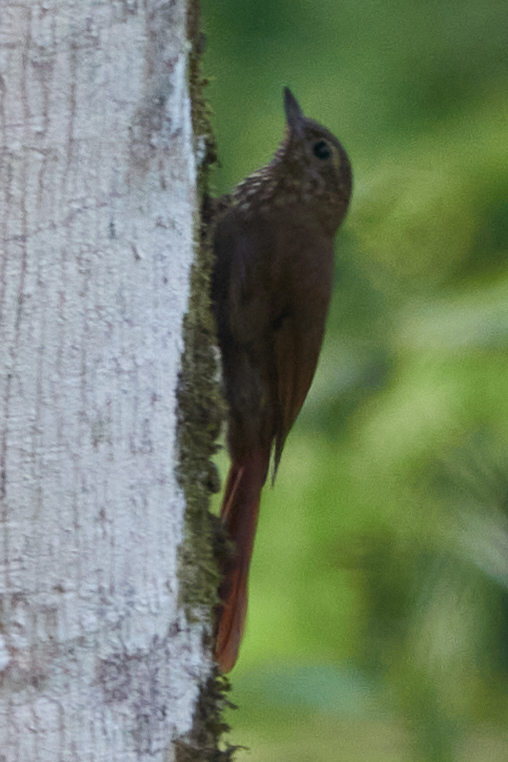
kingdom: Animalia
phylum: Chordata
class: Aves
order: Passeriformes
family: Furnariidae
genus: Glyphorynchus
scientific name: Glyphorynchus spirurus
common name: Wedge-billed woodcreeper
